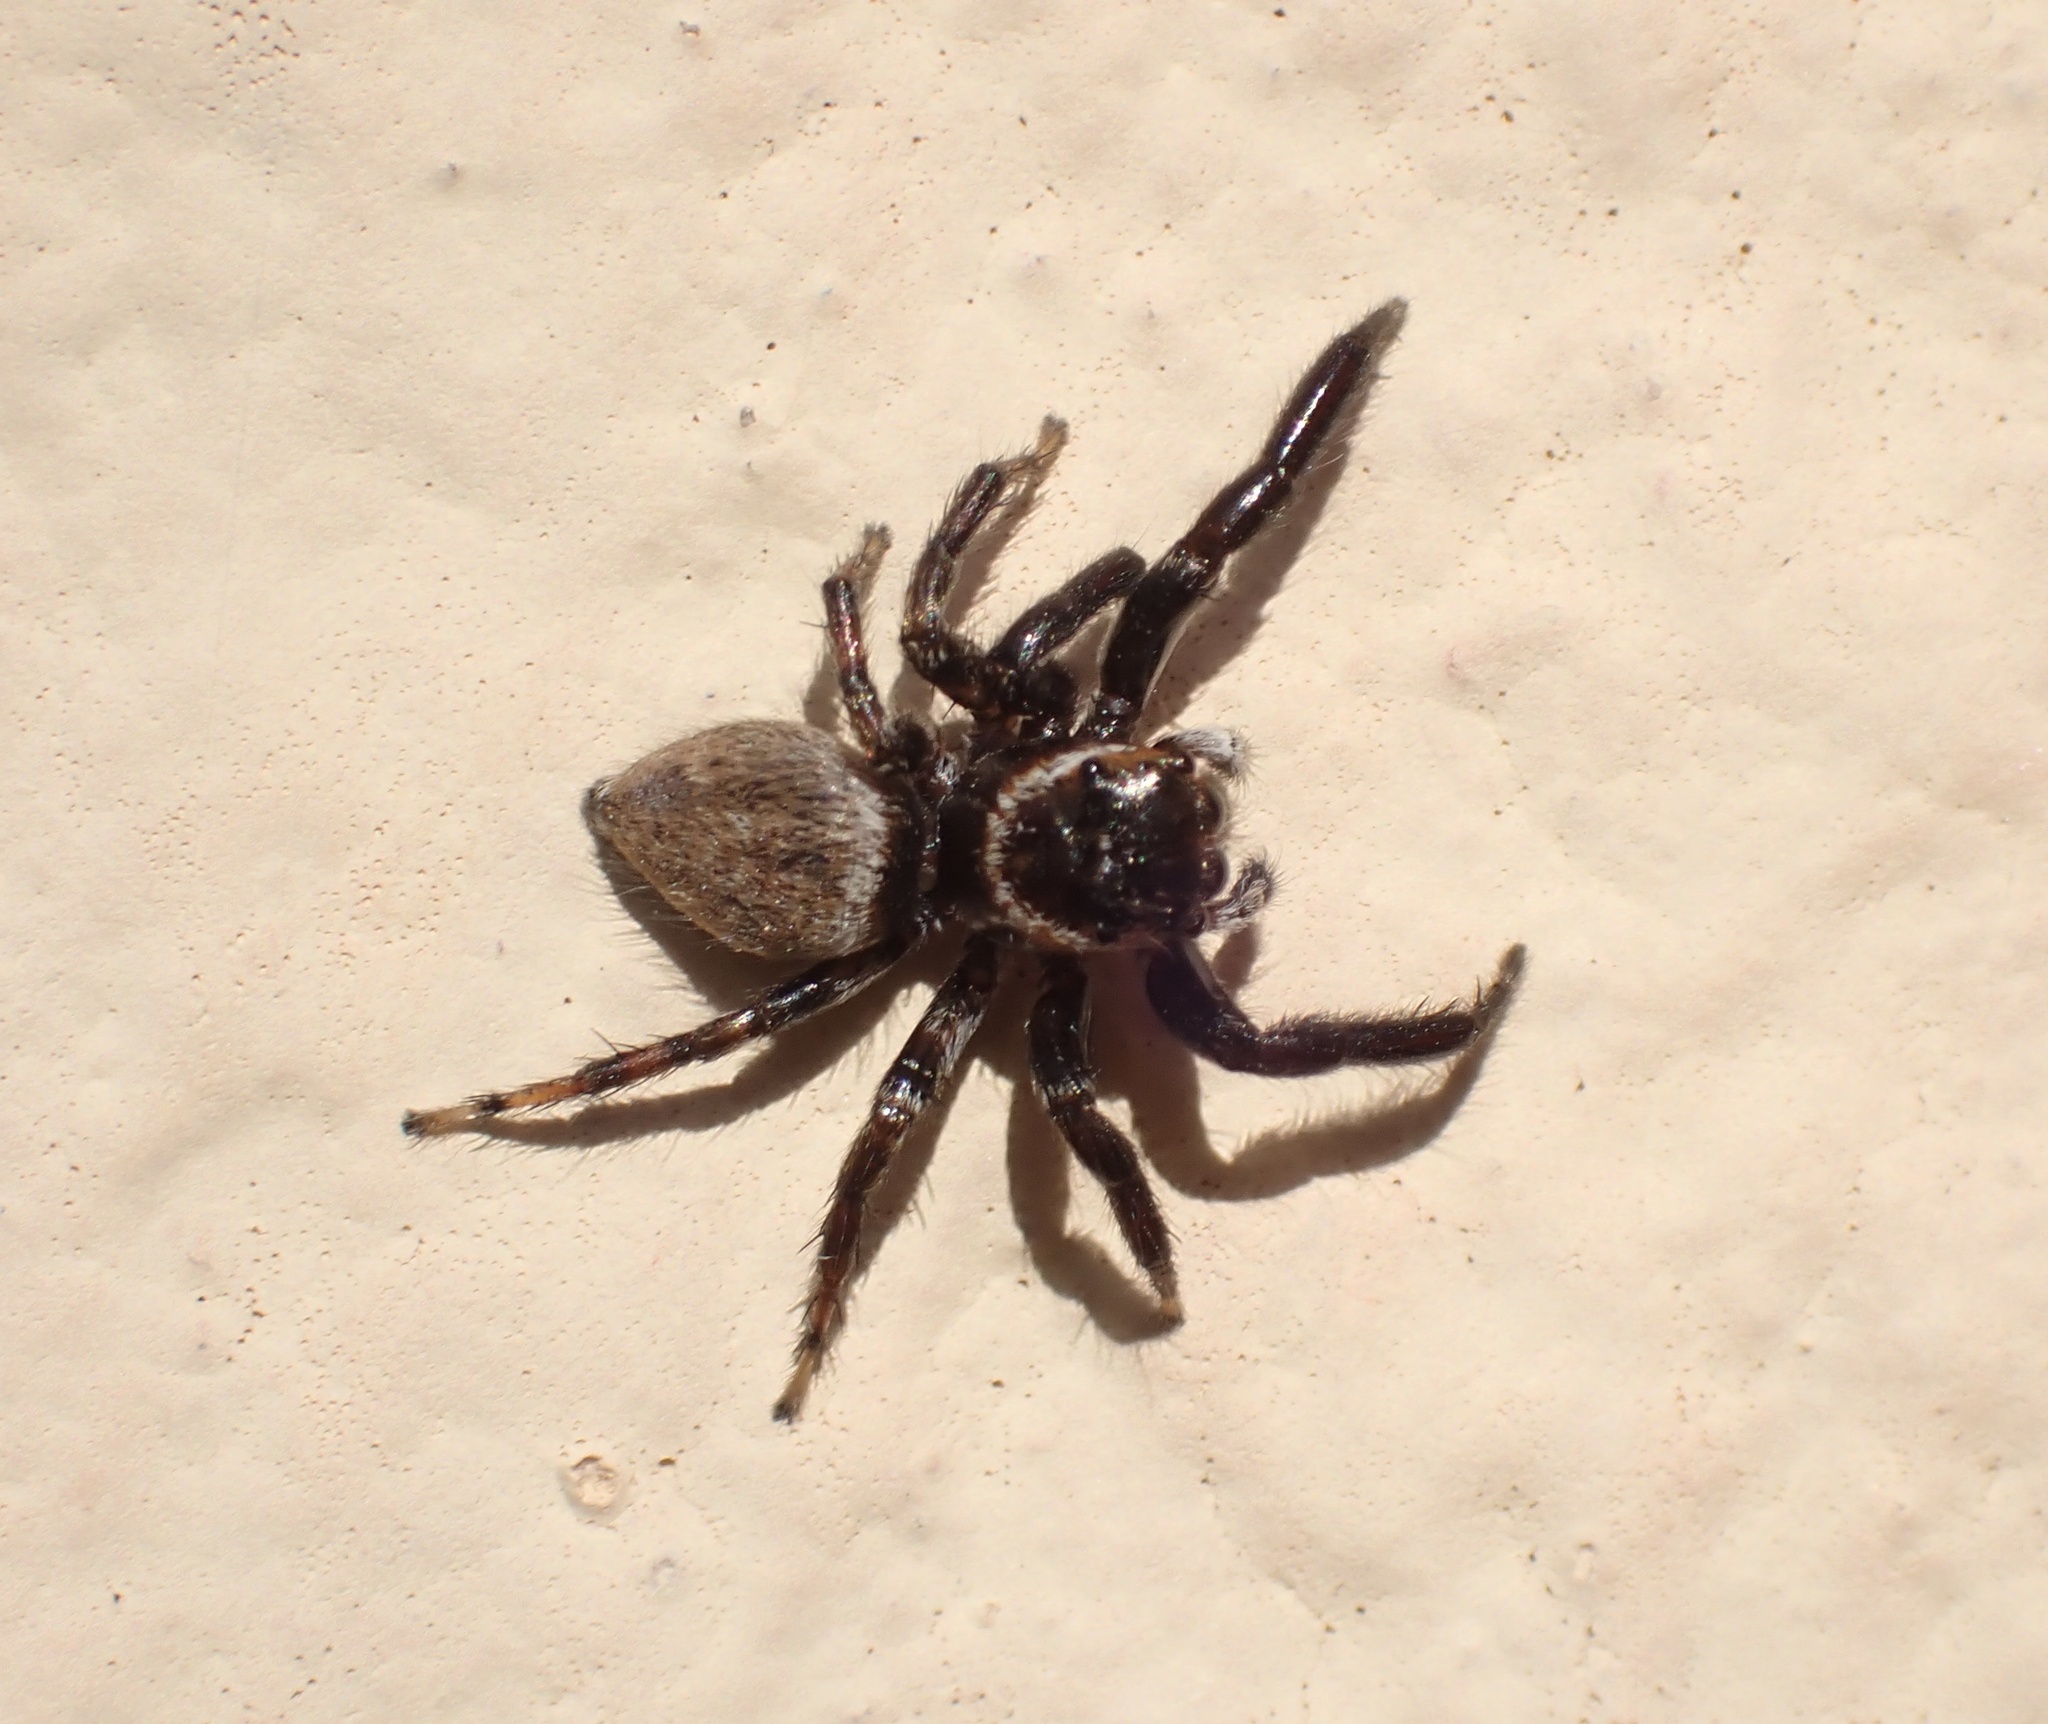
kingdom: Animalia
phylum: Arthropoda
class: Arachnida
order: Araneae
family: Salticidae
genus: Evarcha
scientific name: Evarcha jucunda
